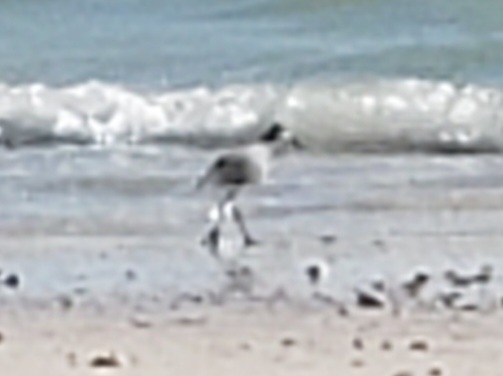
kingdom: Animalia
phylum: Chordata
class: Aves
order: Charadriiformes
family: Scolopacidae
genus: Tringa
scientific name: Tringa semipalmata
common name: Willet
